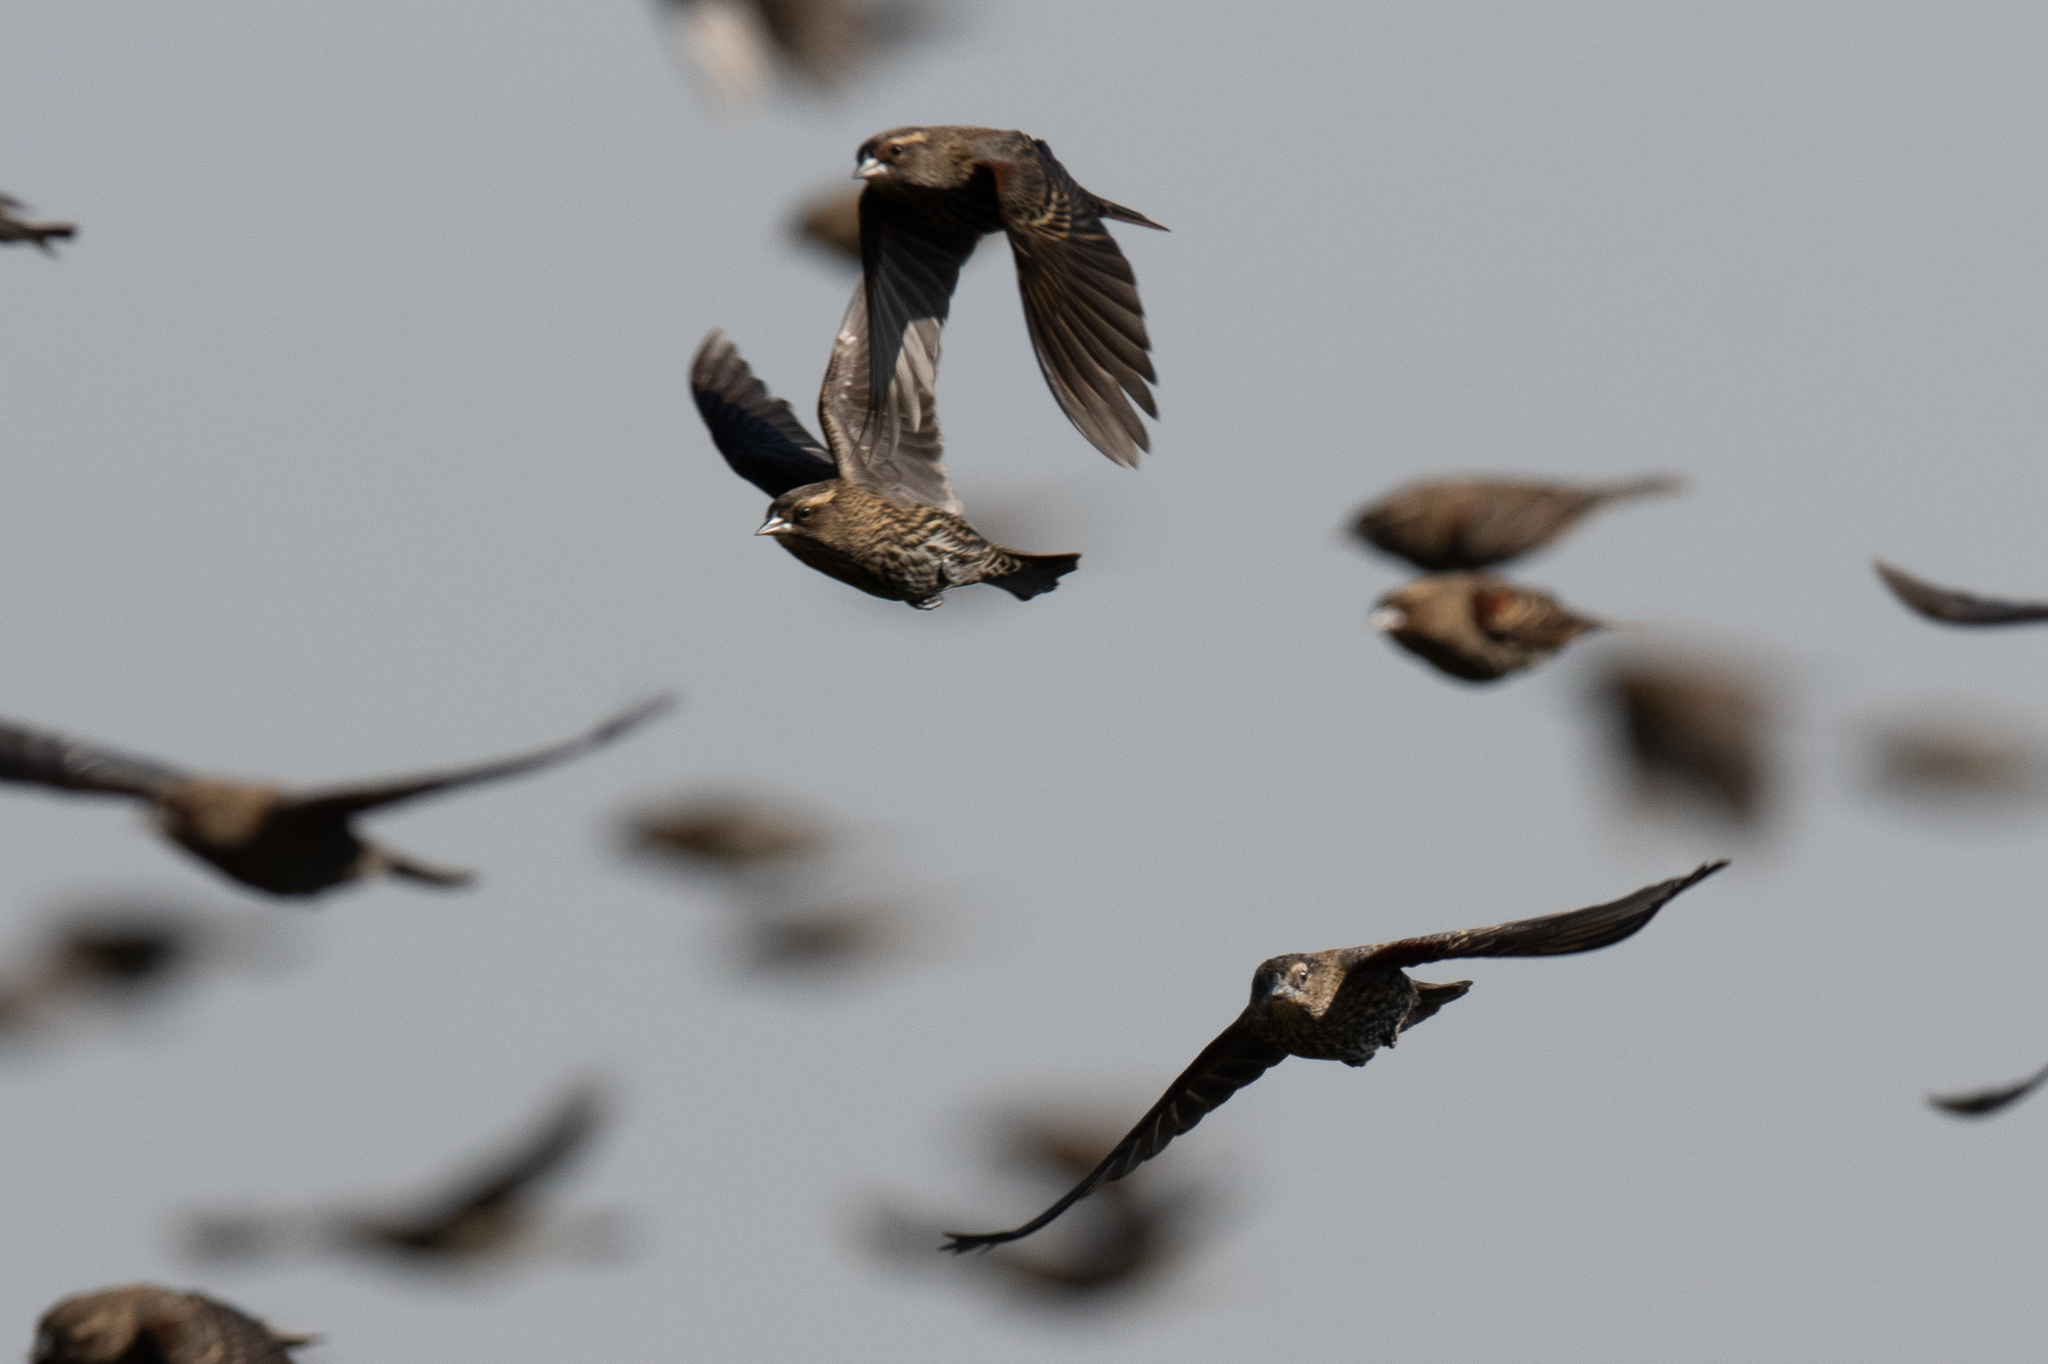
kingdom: Animalia
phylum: Chordata
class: Aves
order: Passeriformes
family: Icteridae
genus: Agelaius
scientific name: Agelaius phoeniceus
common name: Red-winged blackbird
